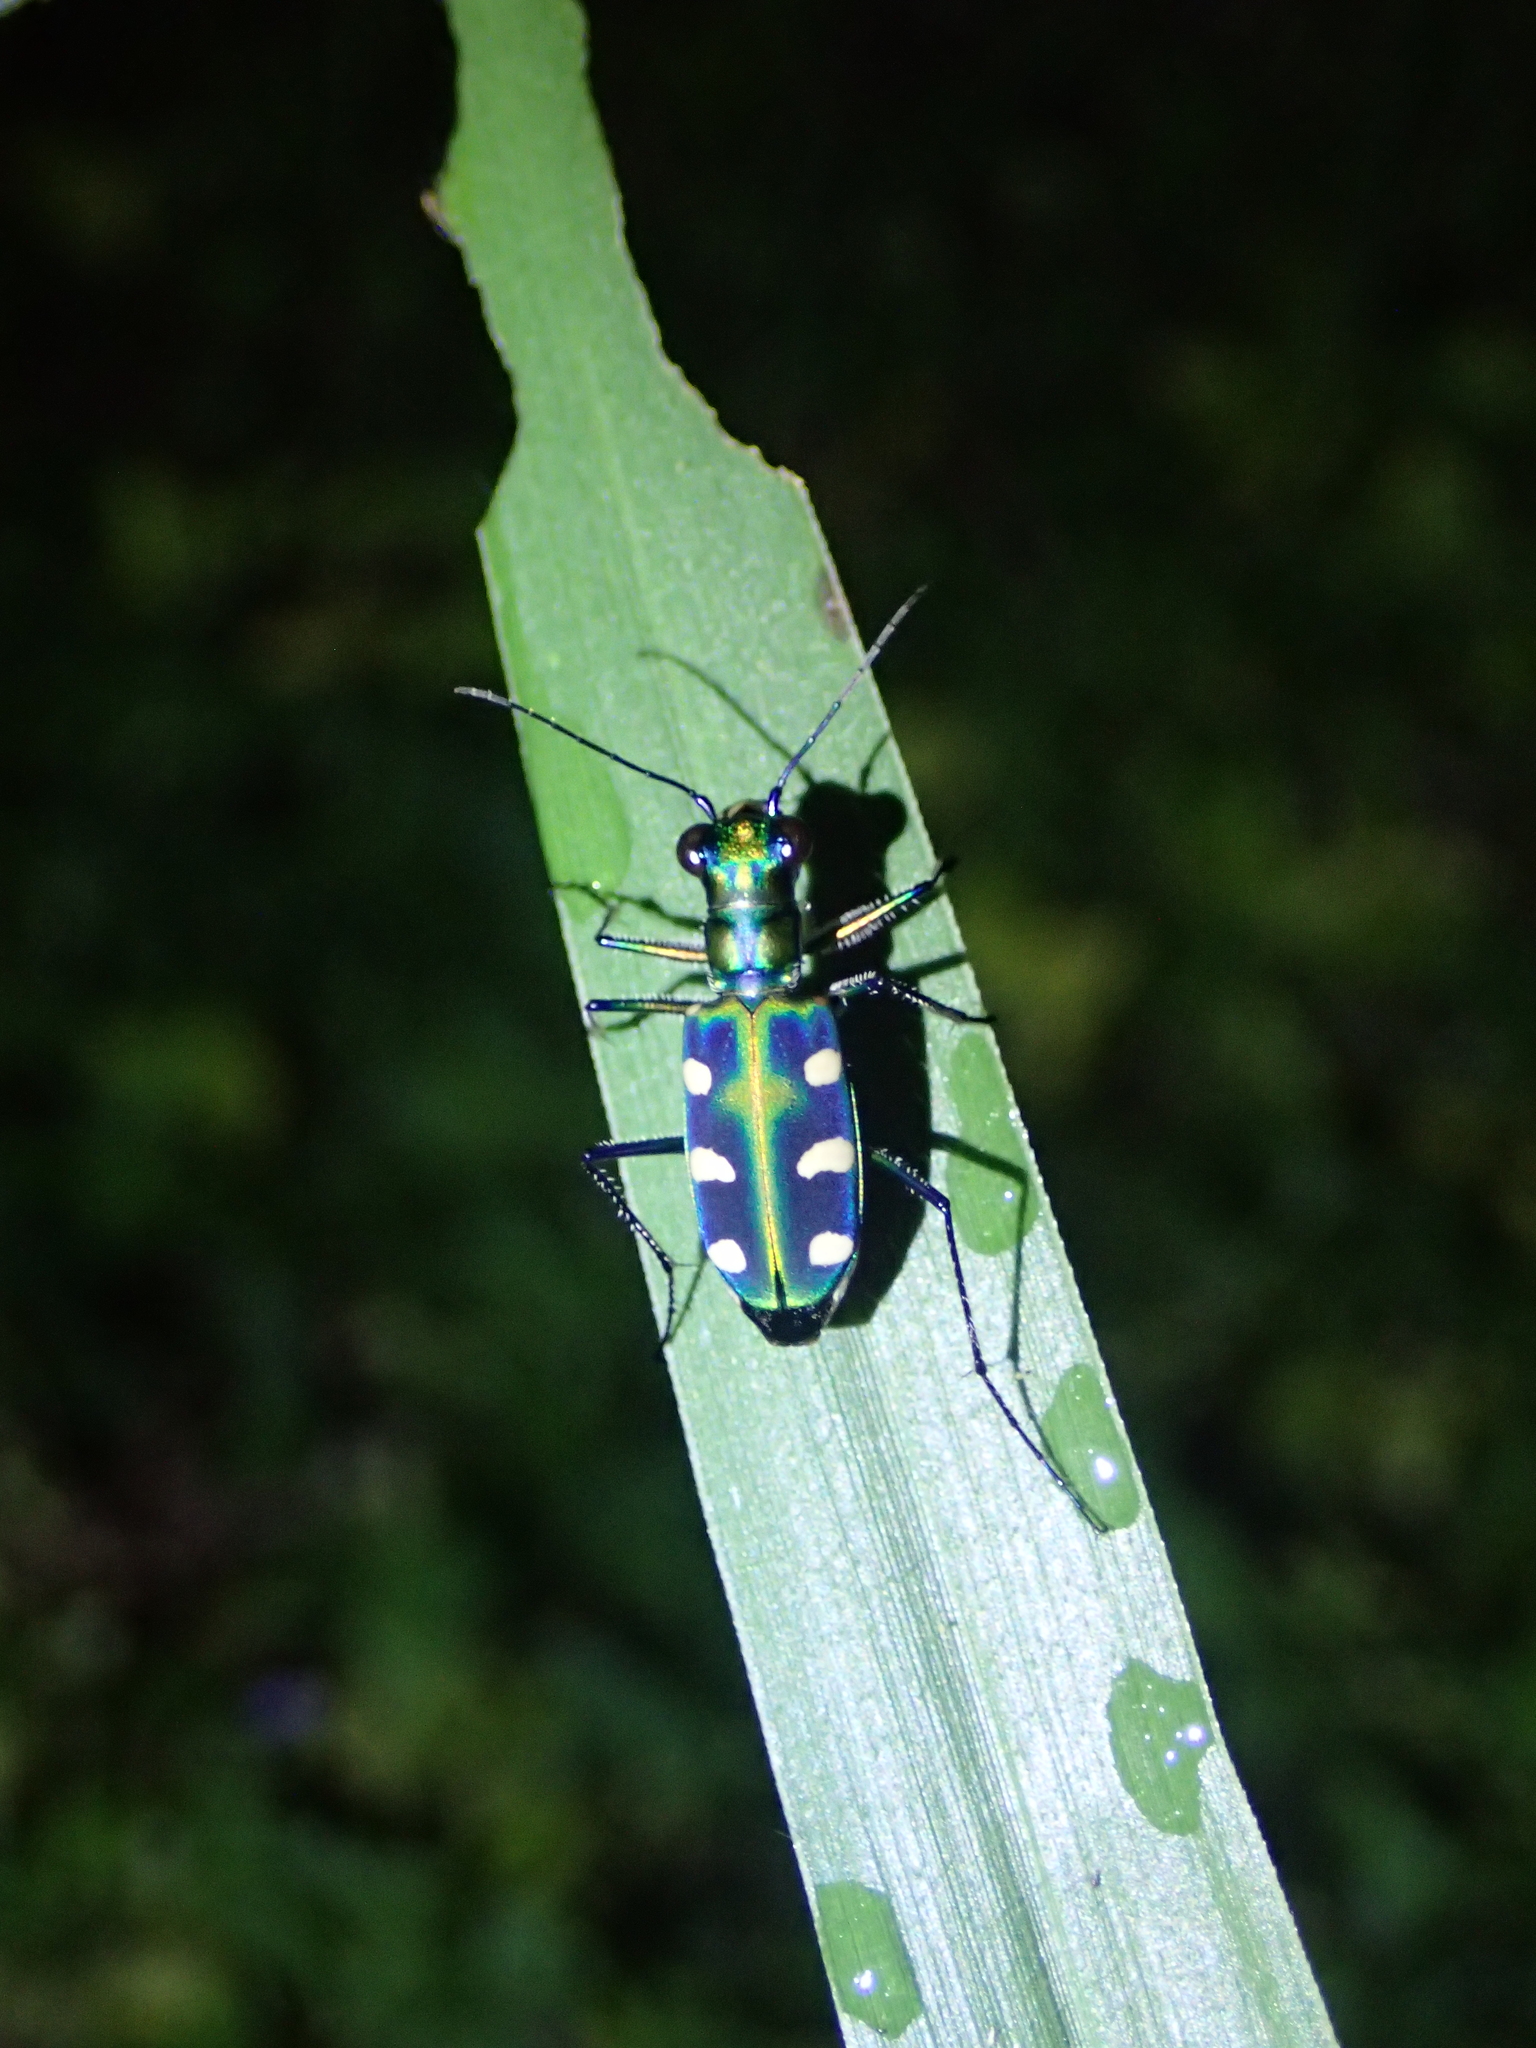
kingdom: Animalia
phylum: Arthropoda
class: Insecta
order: Coleoptera
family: Carabidae
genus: Cicindela
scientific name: Cicindela batesi
